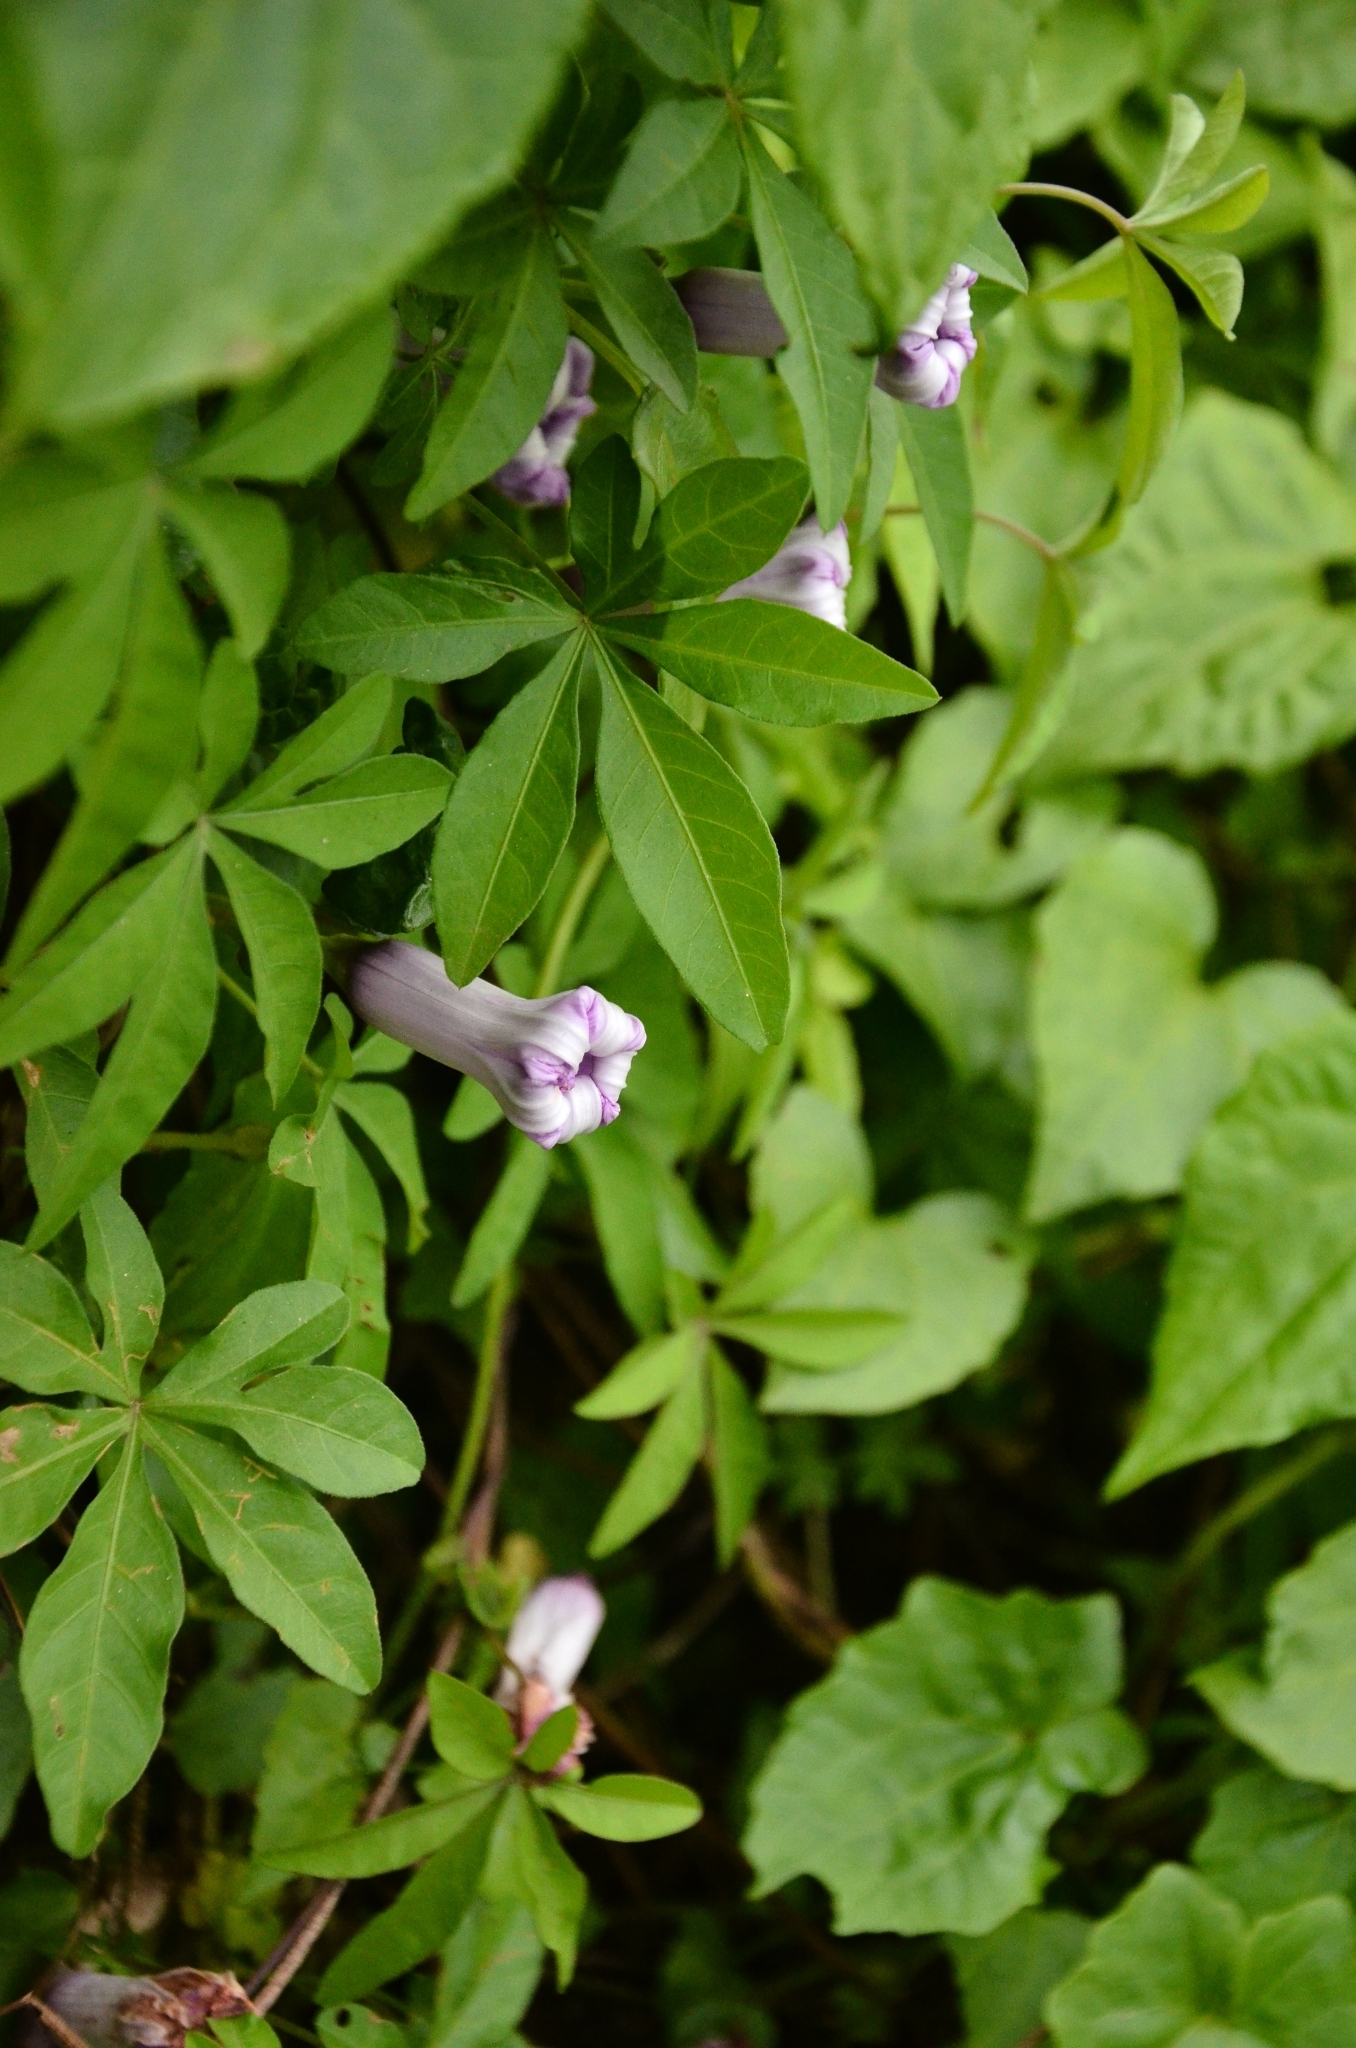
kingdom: Plantae
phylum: Tracheophyta
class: Magnoliopsida
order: Solanales
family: Convolvulaceae
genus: Ipomoea
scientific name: Ipomoea cairica
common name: Mile a minute vine
